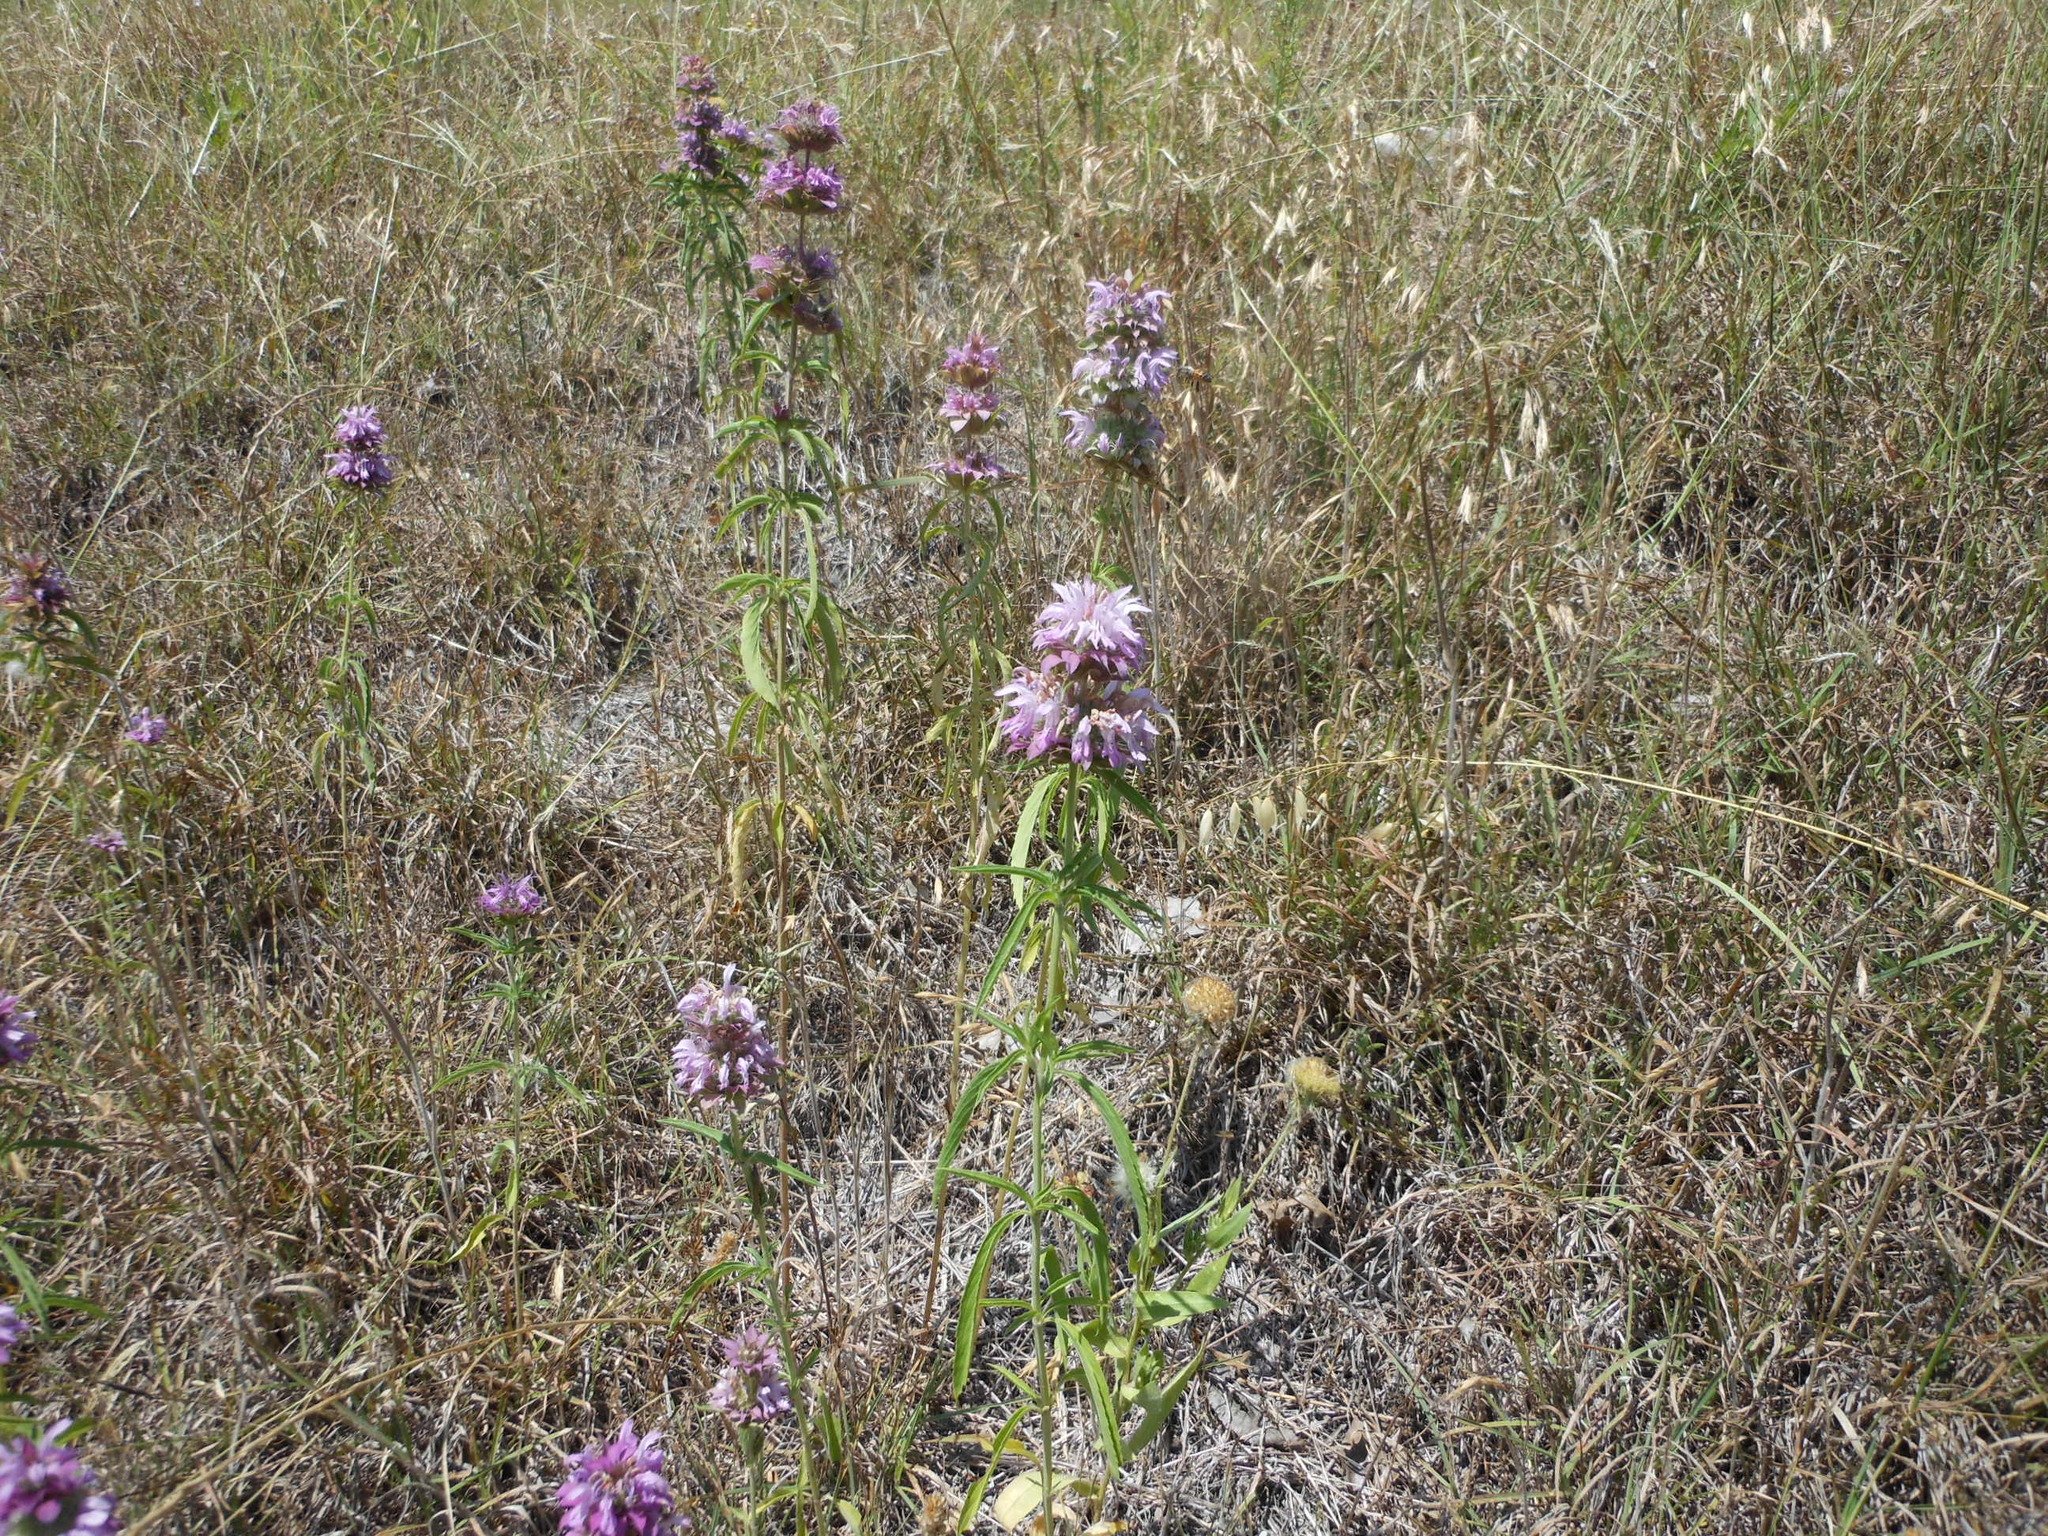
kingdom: Plantae
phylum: Tracheophyta
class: Magnoliopsida
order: Lamiales
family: Lamiaceae
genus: Monarda
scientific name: Monarda citriodora
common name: Lemon beebalm
